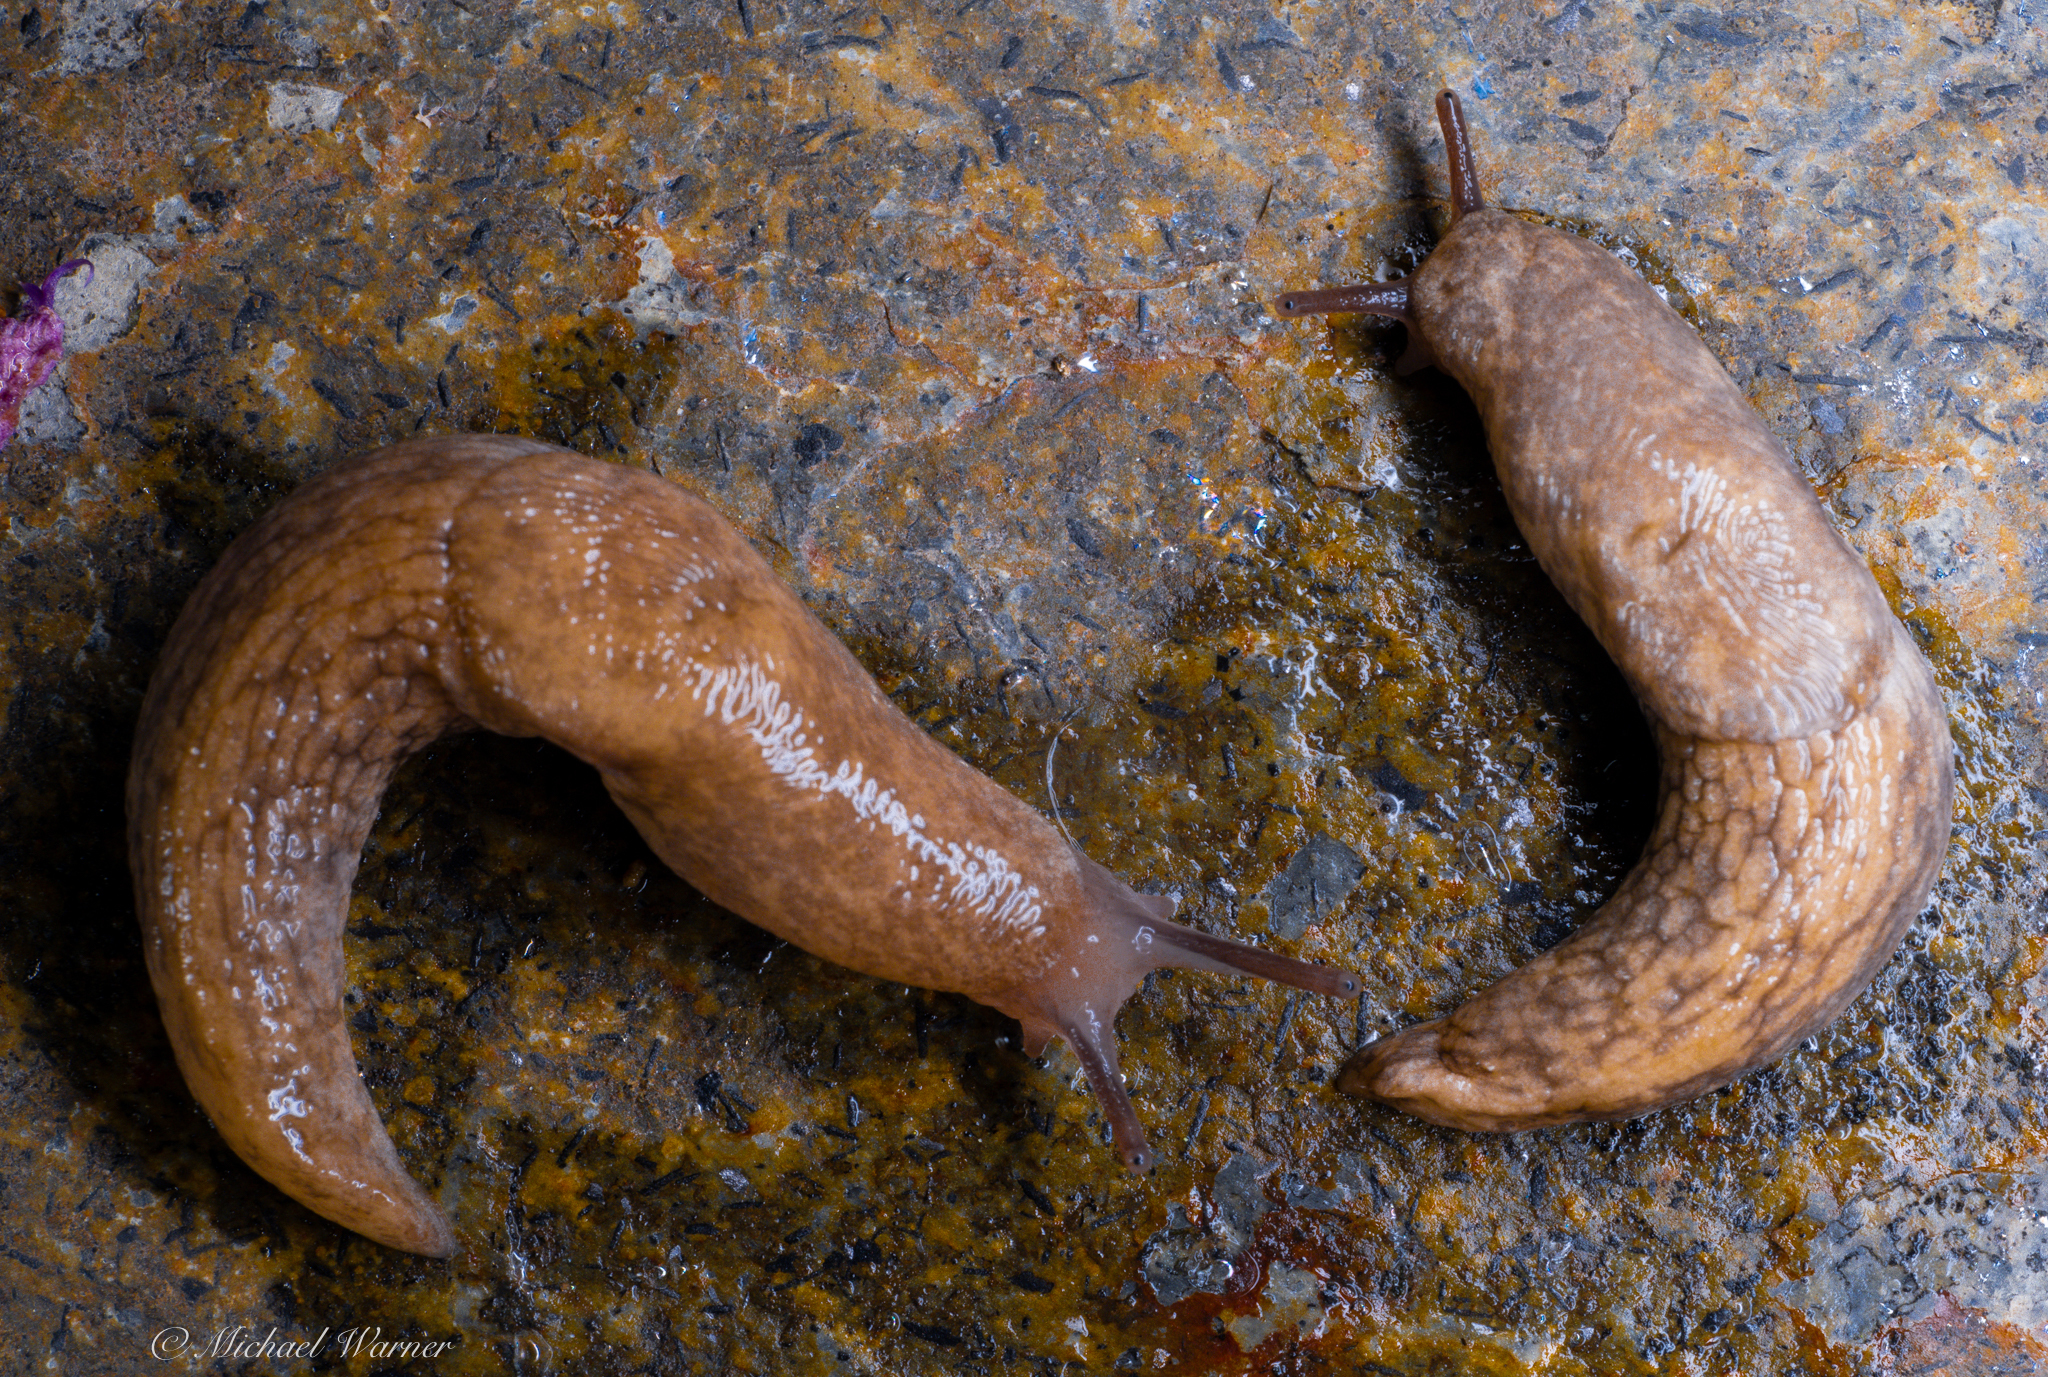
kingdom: Animalia
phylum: Mollusca
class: Gastropoda
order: Stylommatophora
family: Agriolimacidae
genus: Deroceras
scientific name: Deroceras reticulatum
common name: Gray field slug
